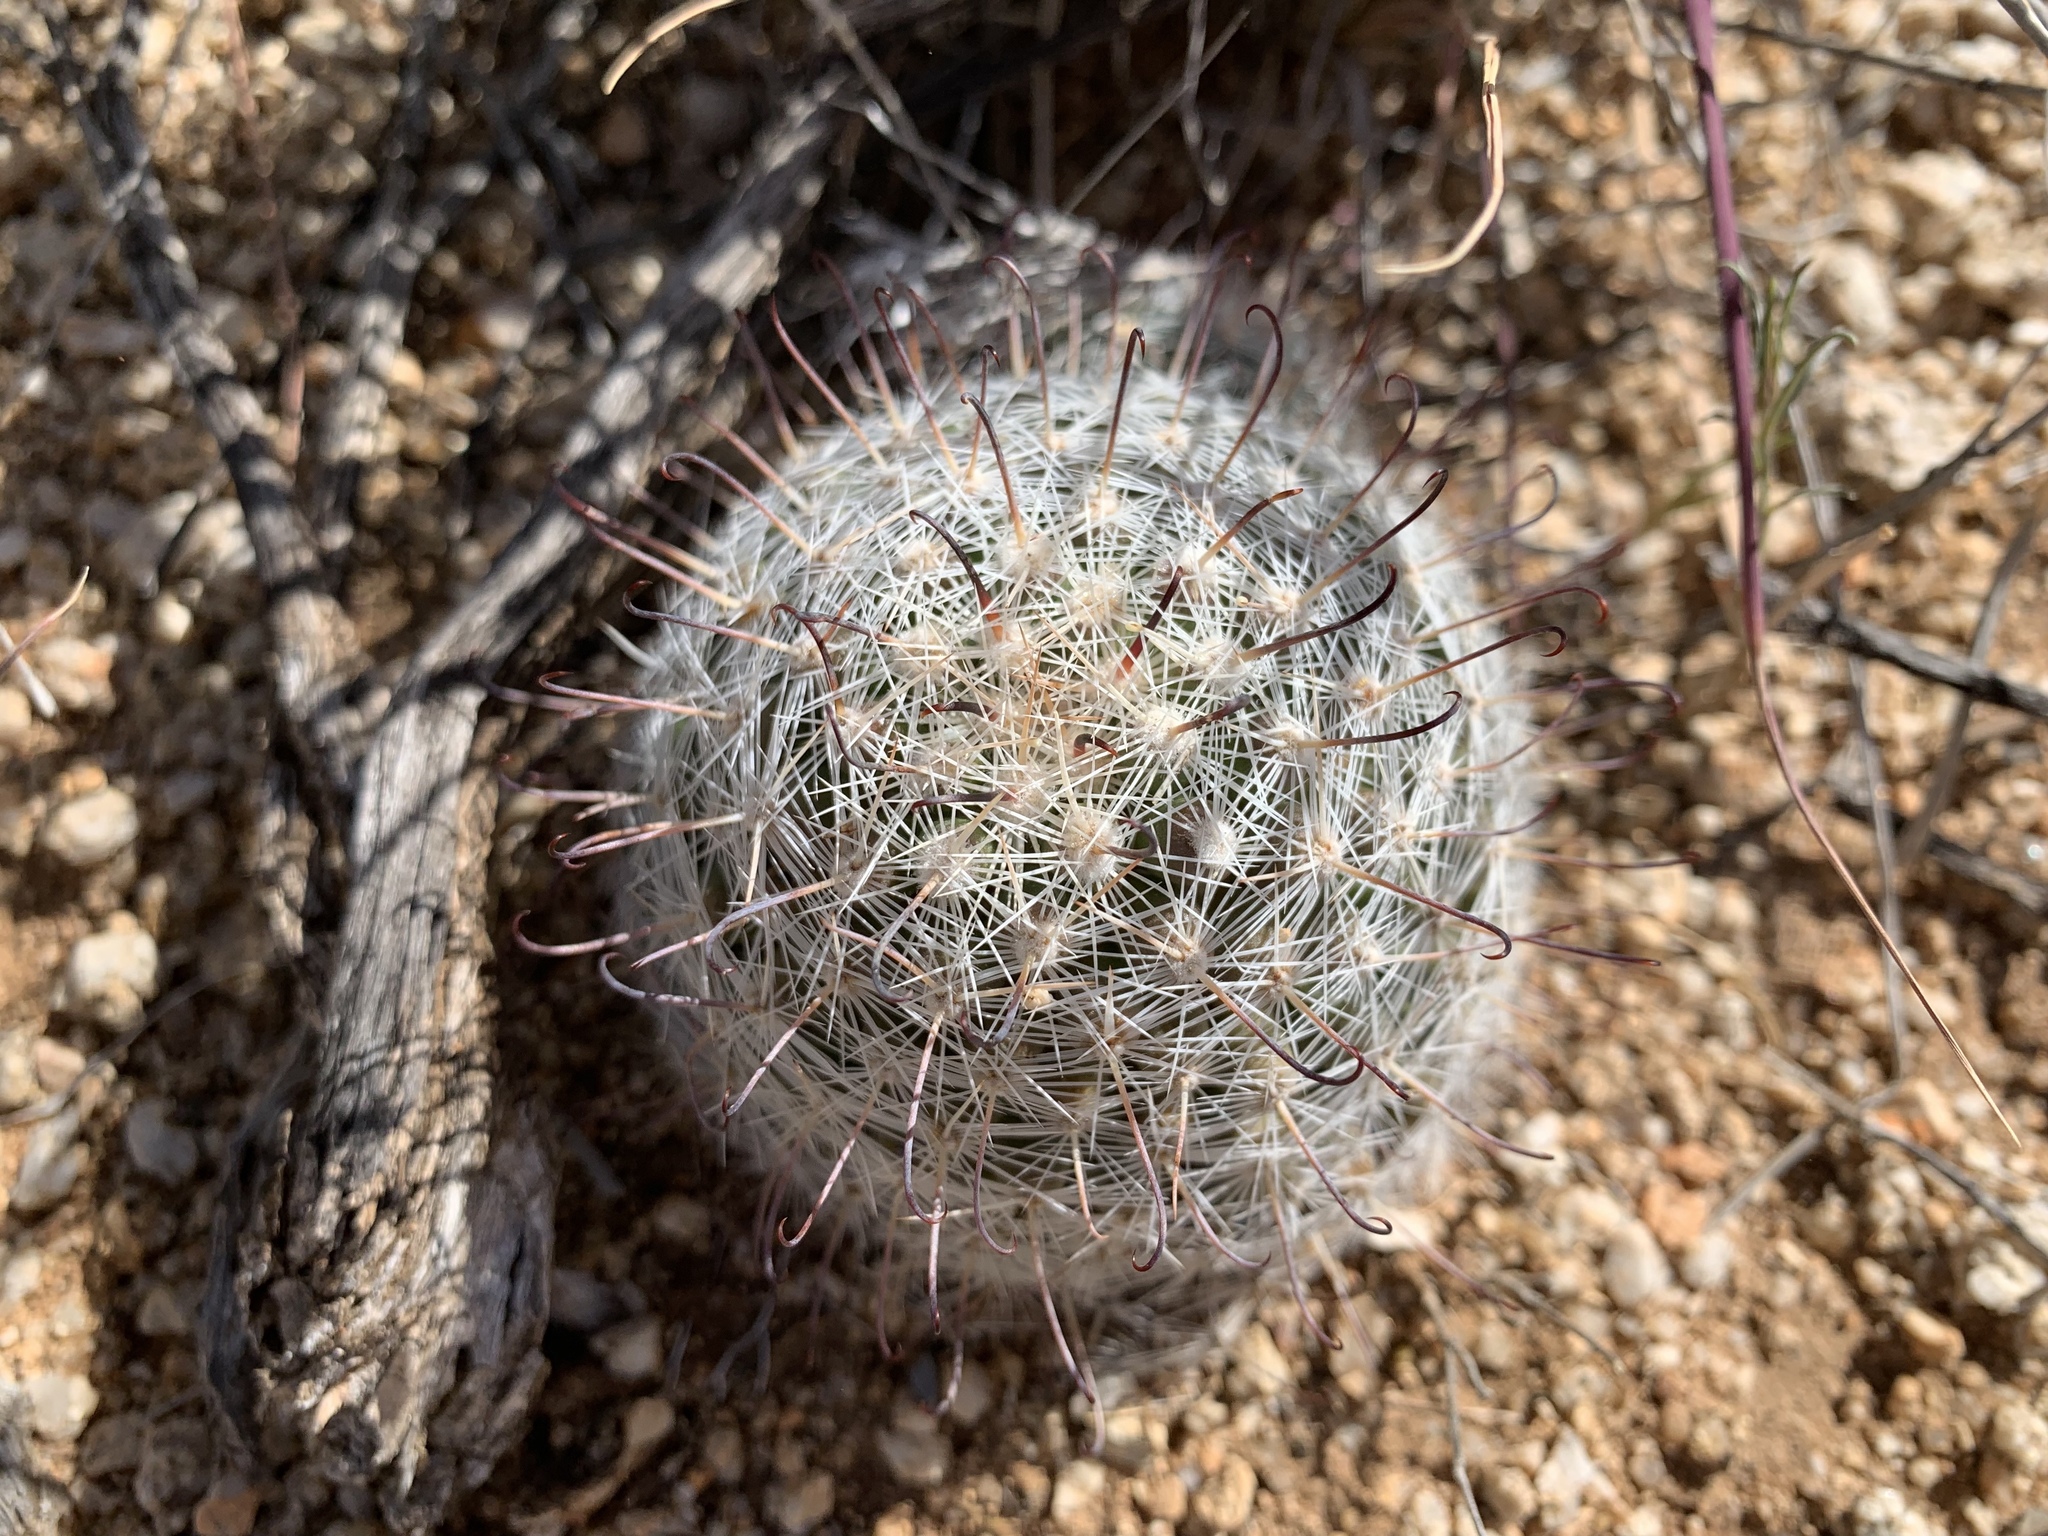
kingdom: Plantae
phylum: Tracheophyta
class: Magnoliopsida
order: Caryophyllales
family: Cactaceae
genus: Cochemiea
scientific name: Cochemiea grahamii
